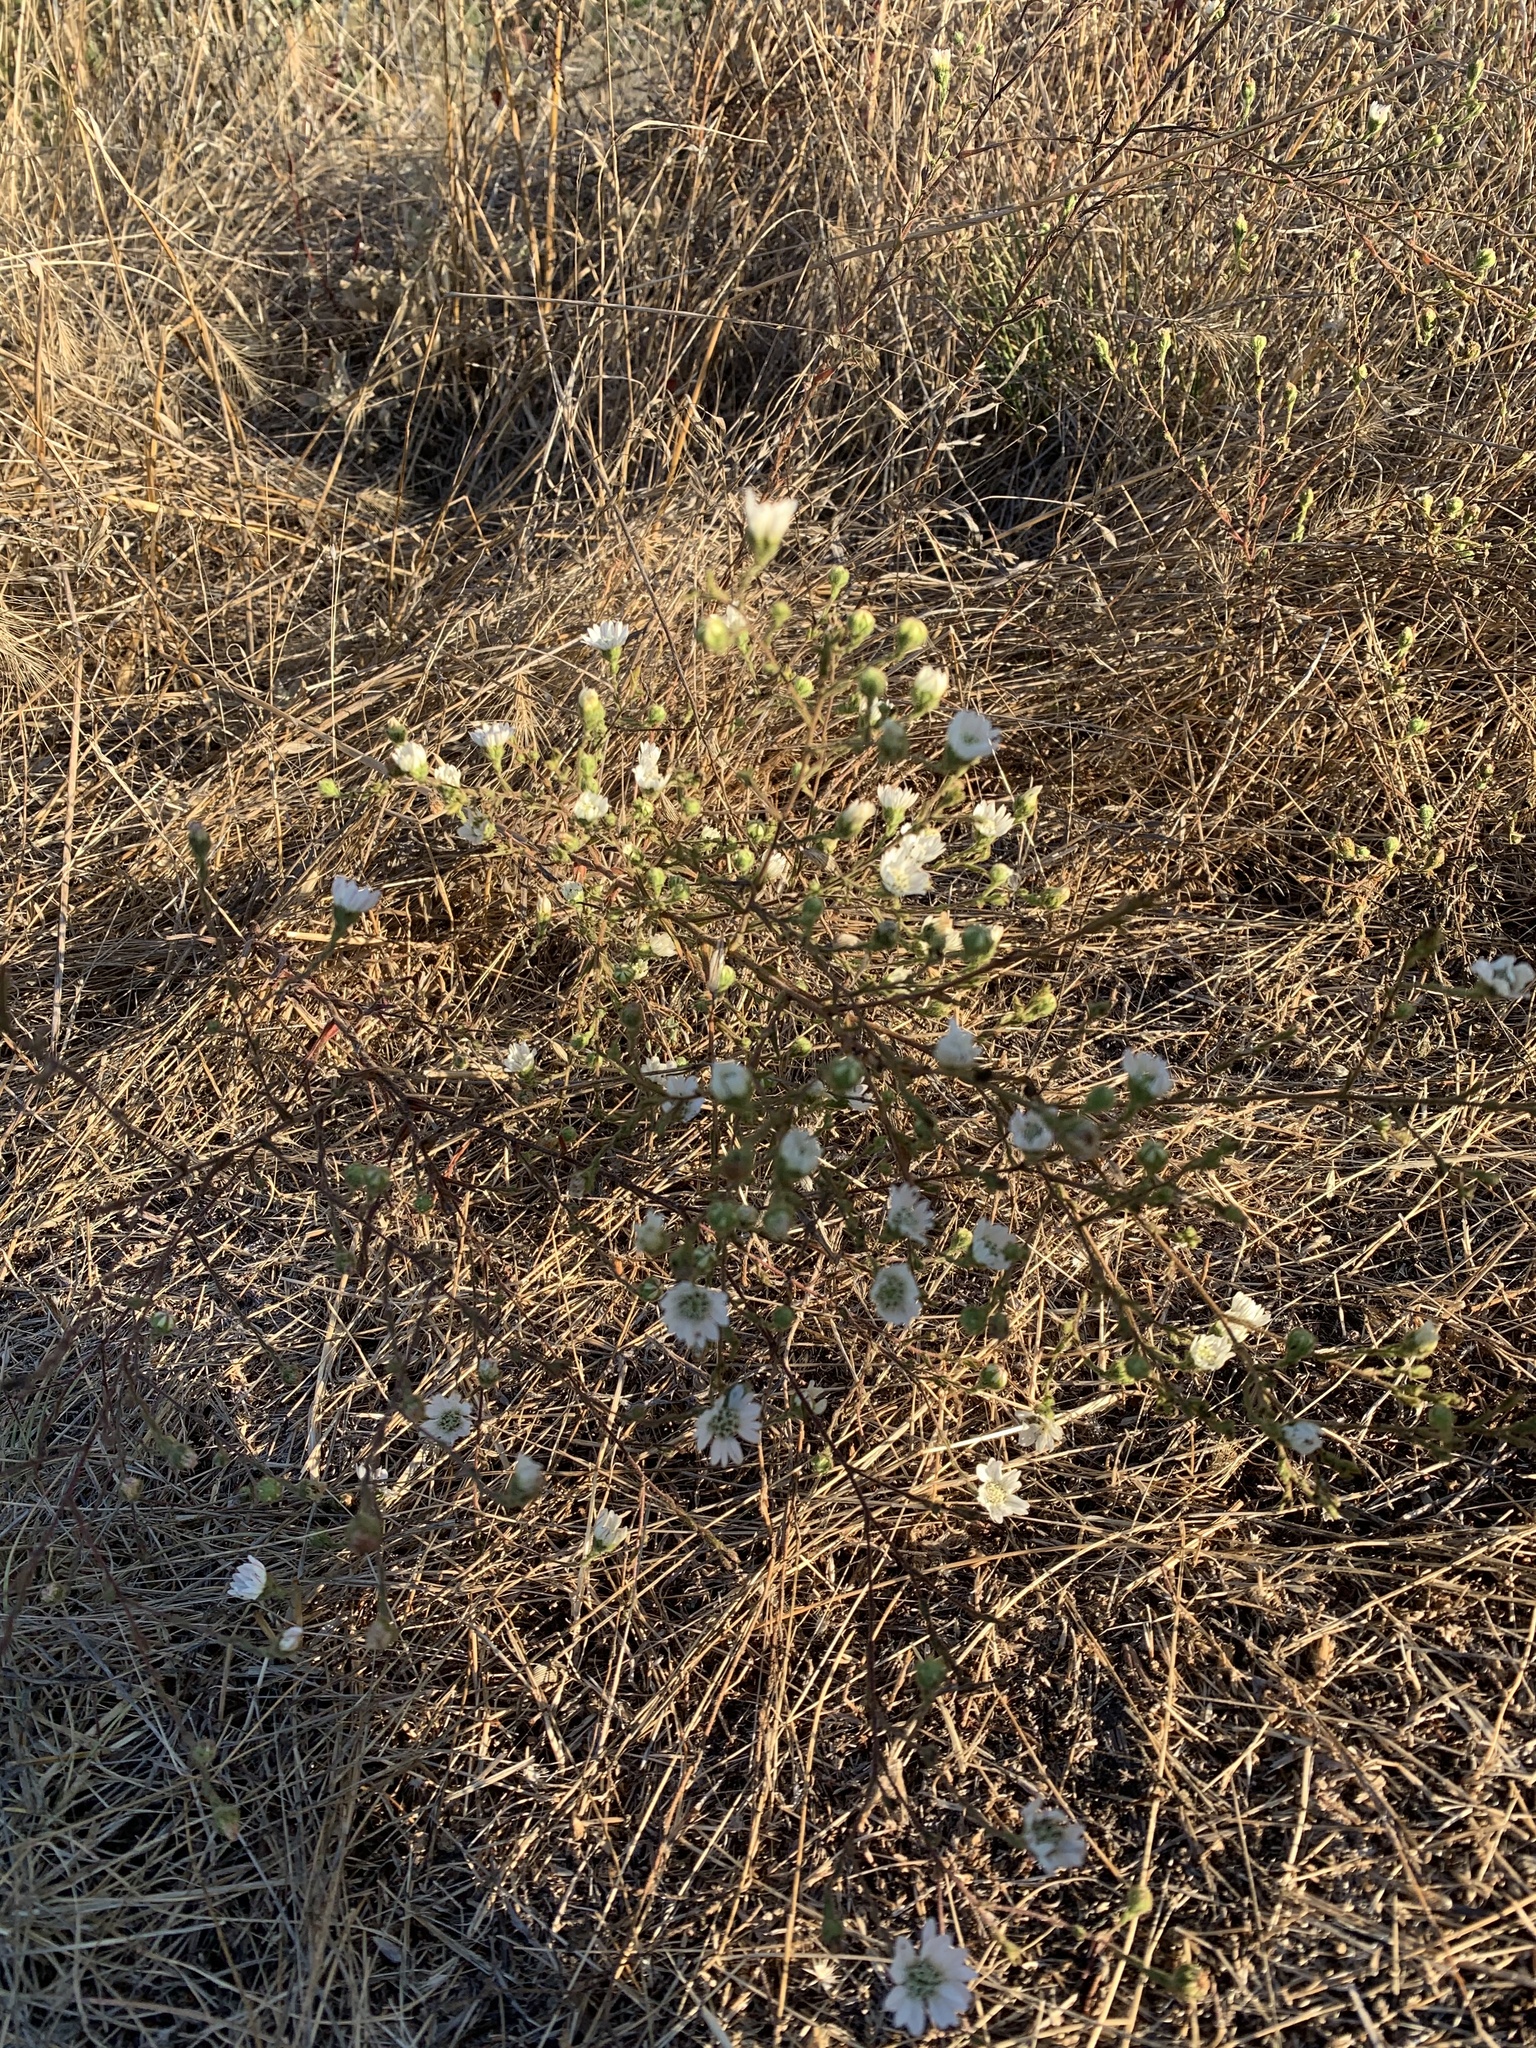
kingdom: Plantae
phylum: Tracheophyta
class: Magnoliopsida
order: Asterales
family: Asteraceae
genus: Hemizonia
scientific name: Hemizonia congesta
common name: Hayfield tarweed
